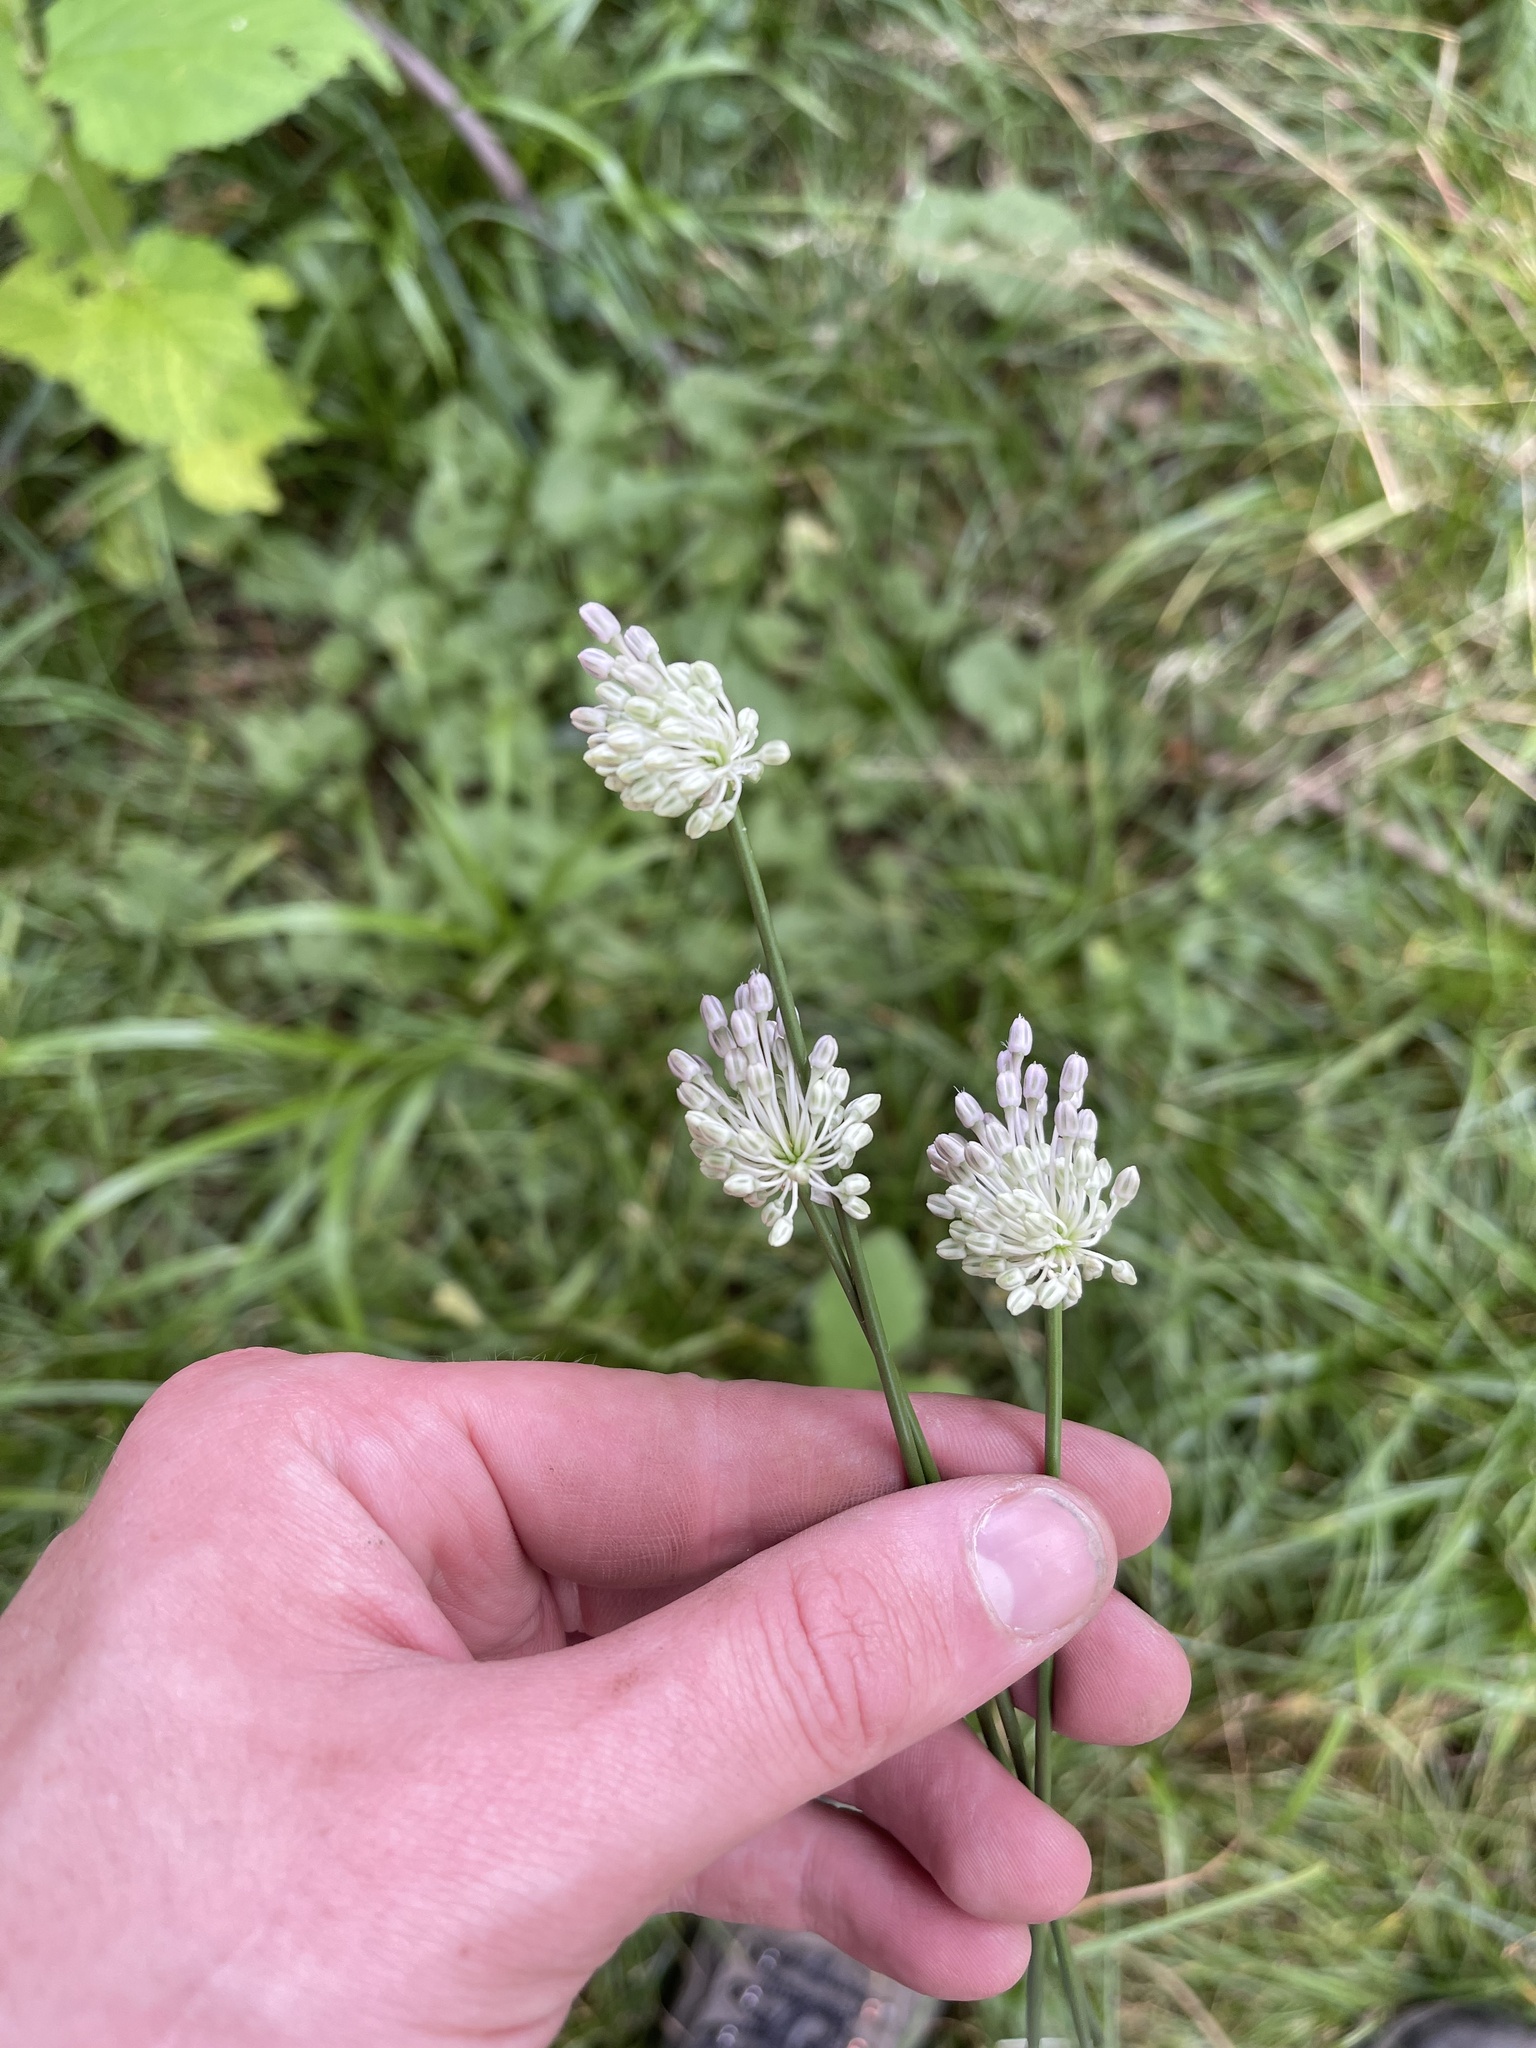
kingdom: Plantae
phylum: Tracheophyta
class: Liliopsida
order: Asparagales
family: Amaryllidaceae
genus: Allium
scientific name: Allium vineale
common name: Crow garlic
